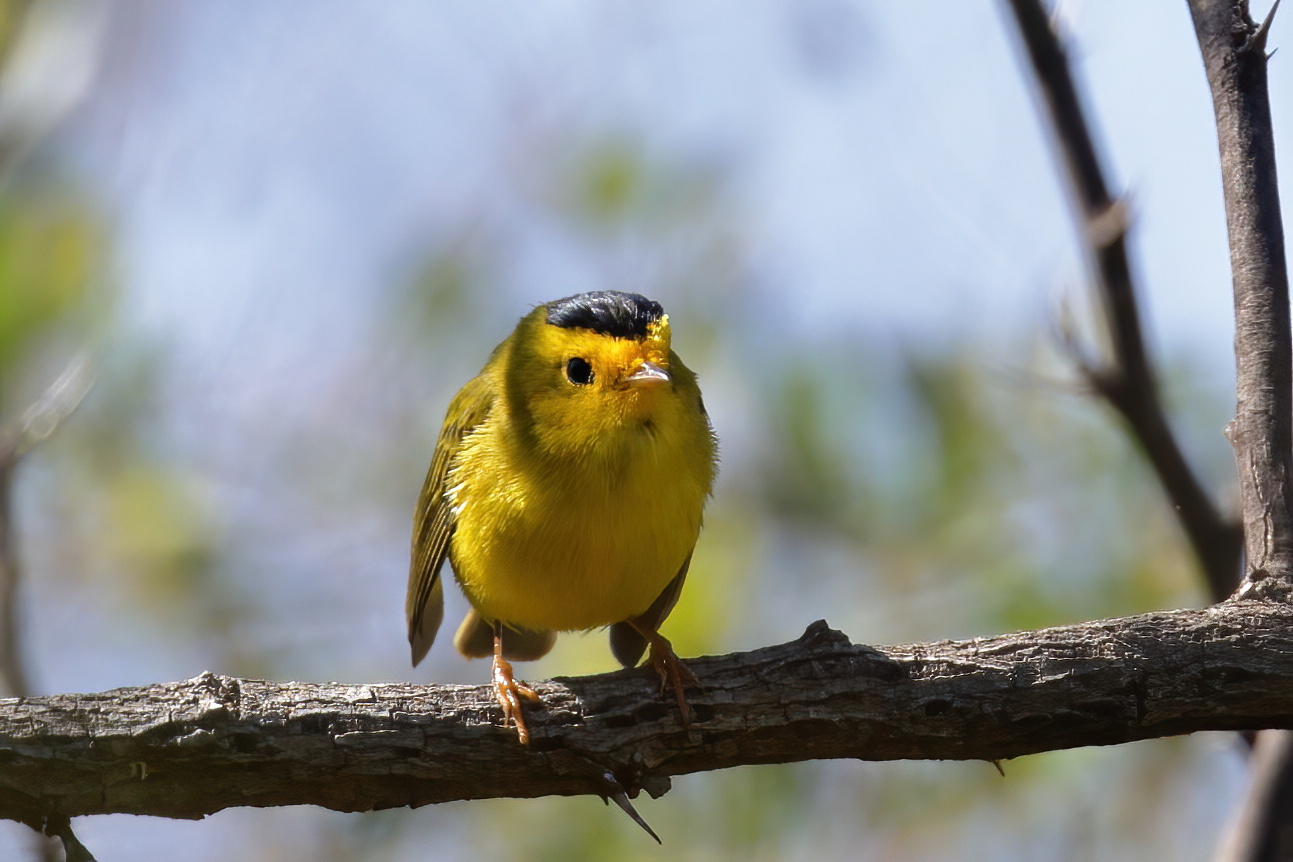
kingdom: Animalia
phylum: Chordata
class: Aves
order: Passeriformes
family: Parulidae
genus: Cardellina
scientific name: Cardellina pusilla
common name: Wilson's warbler
